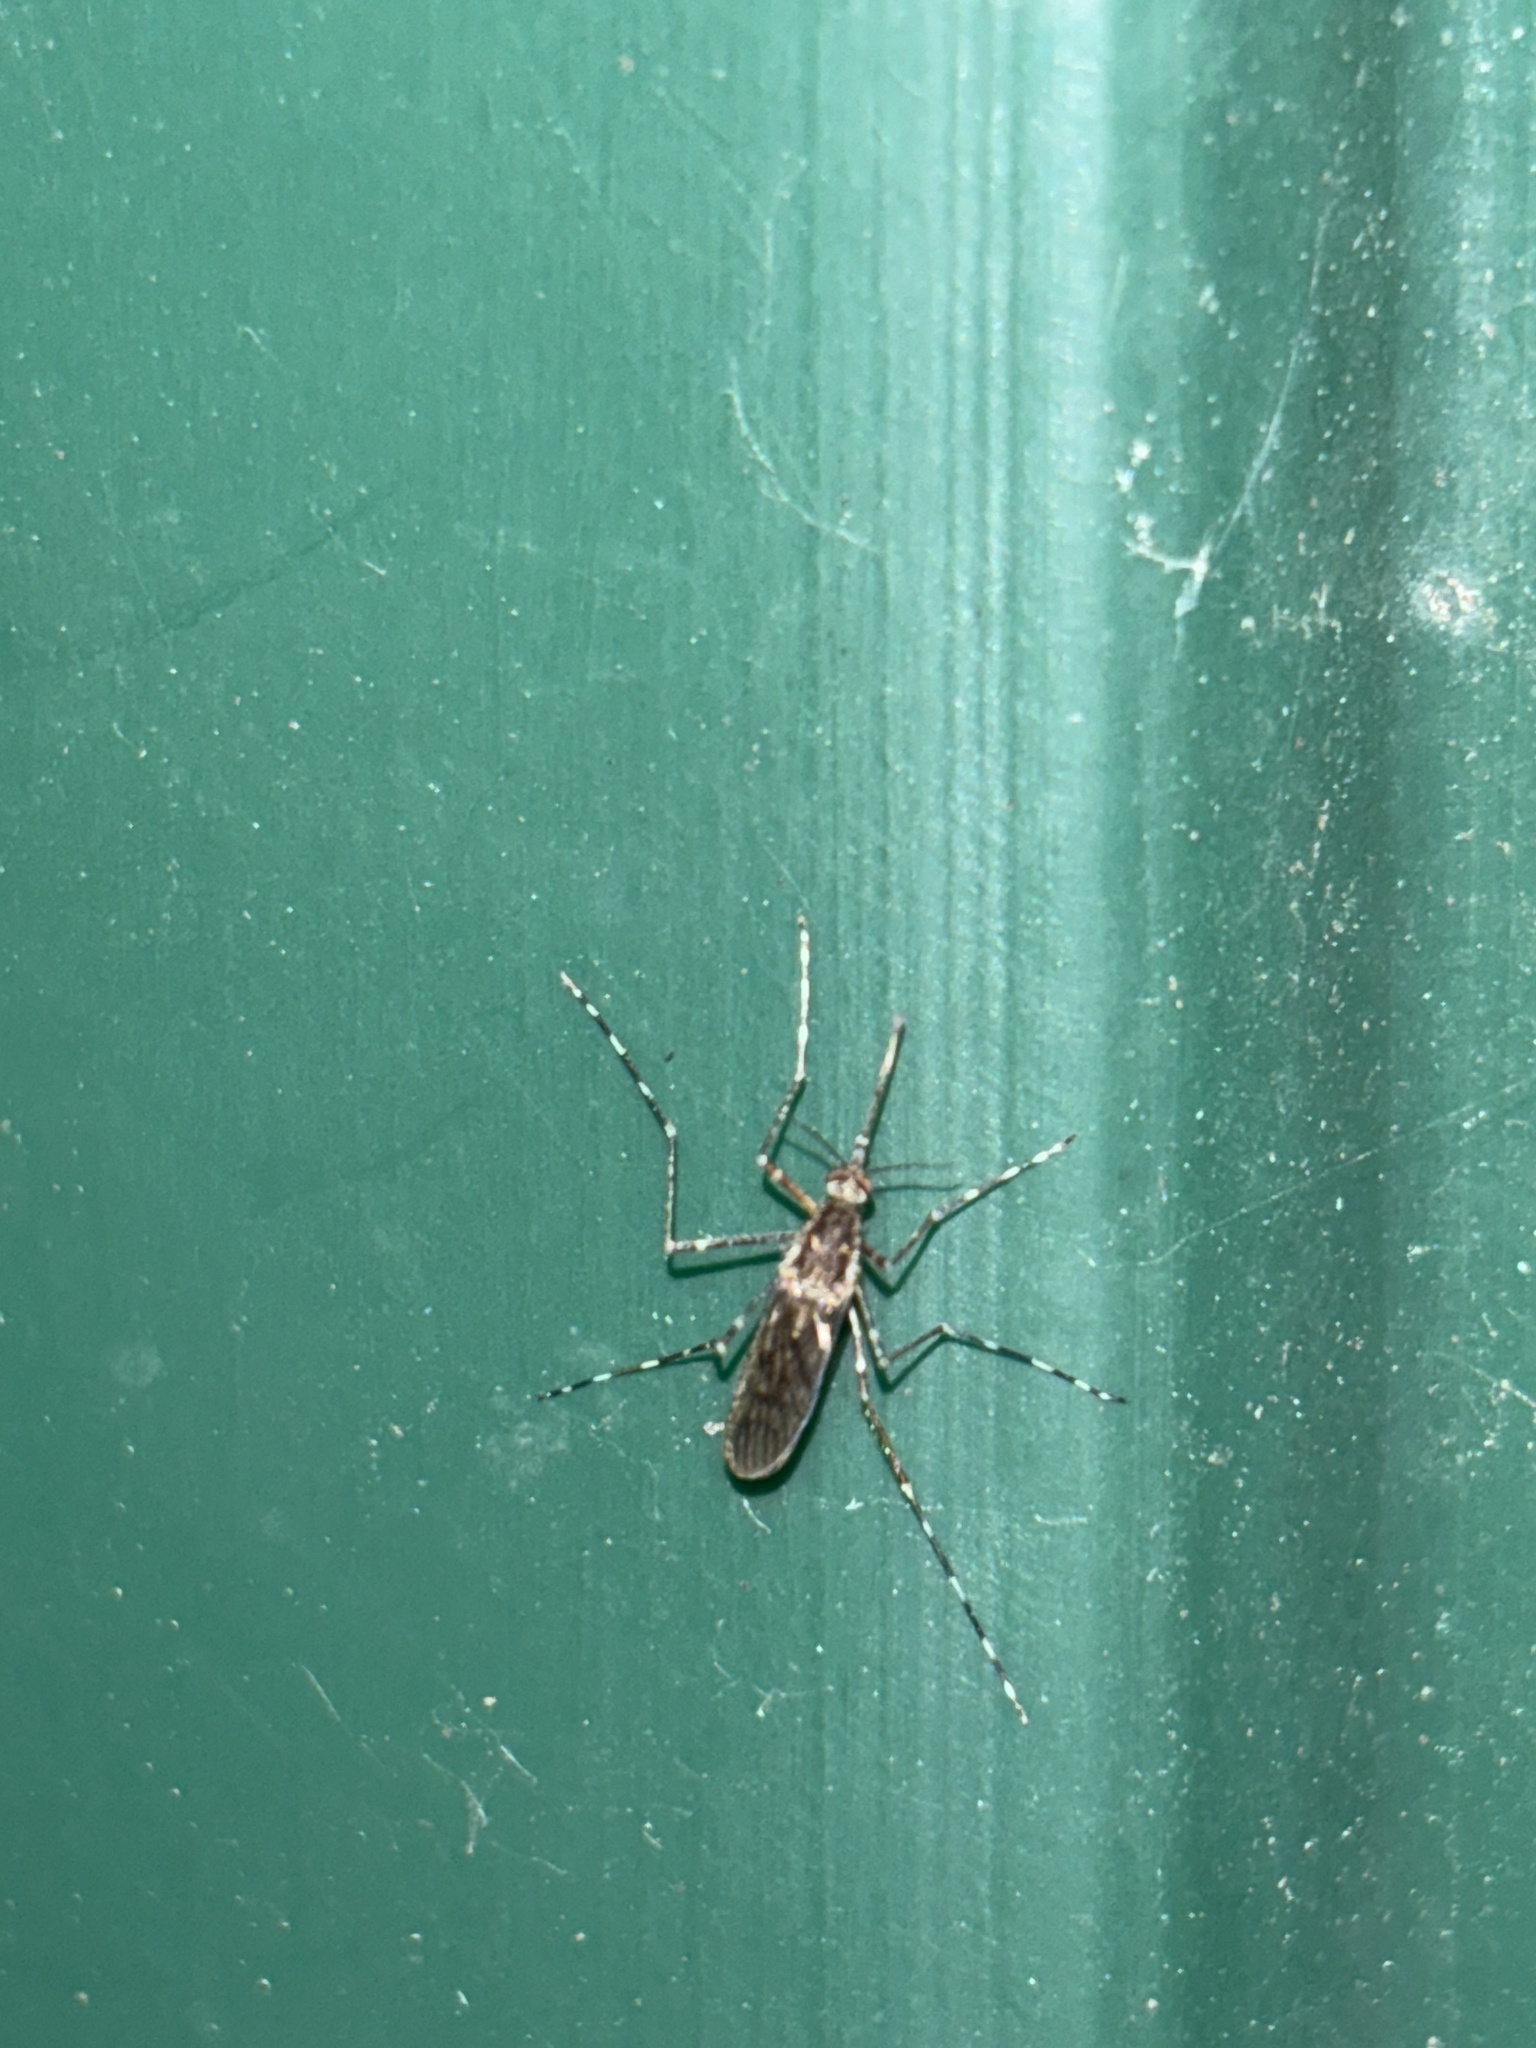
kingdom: Animalia
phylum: Arthropoda
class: Insecta
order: Diptera
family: Culicidae
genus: Culiseta
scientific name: Culiseta annulata
